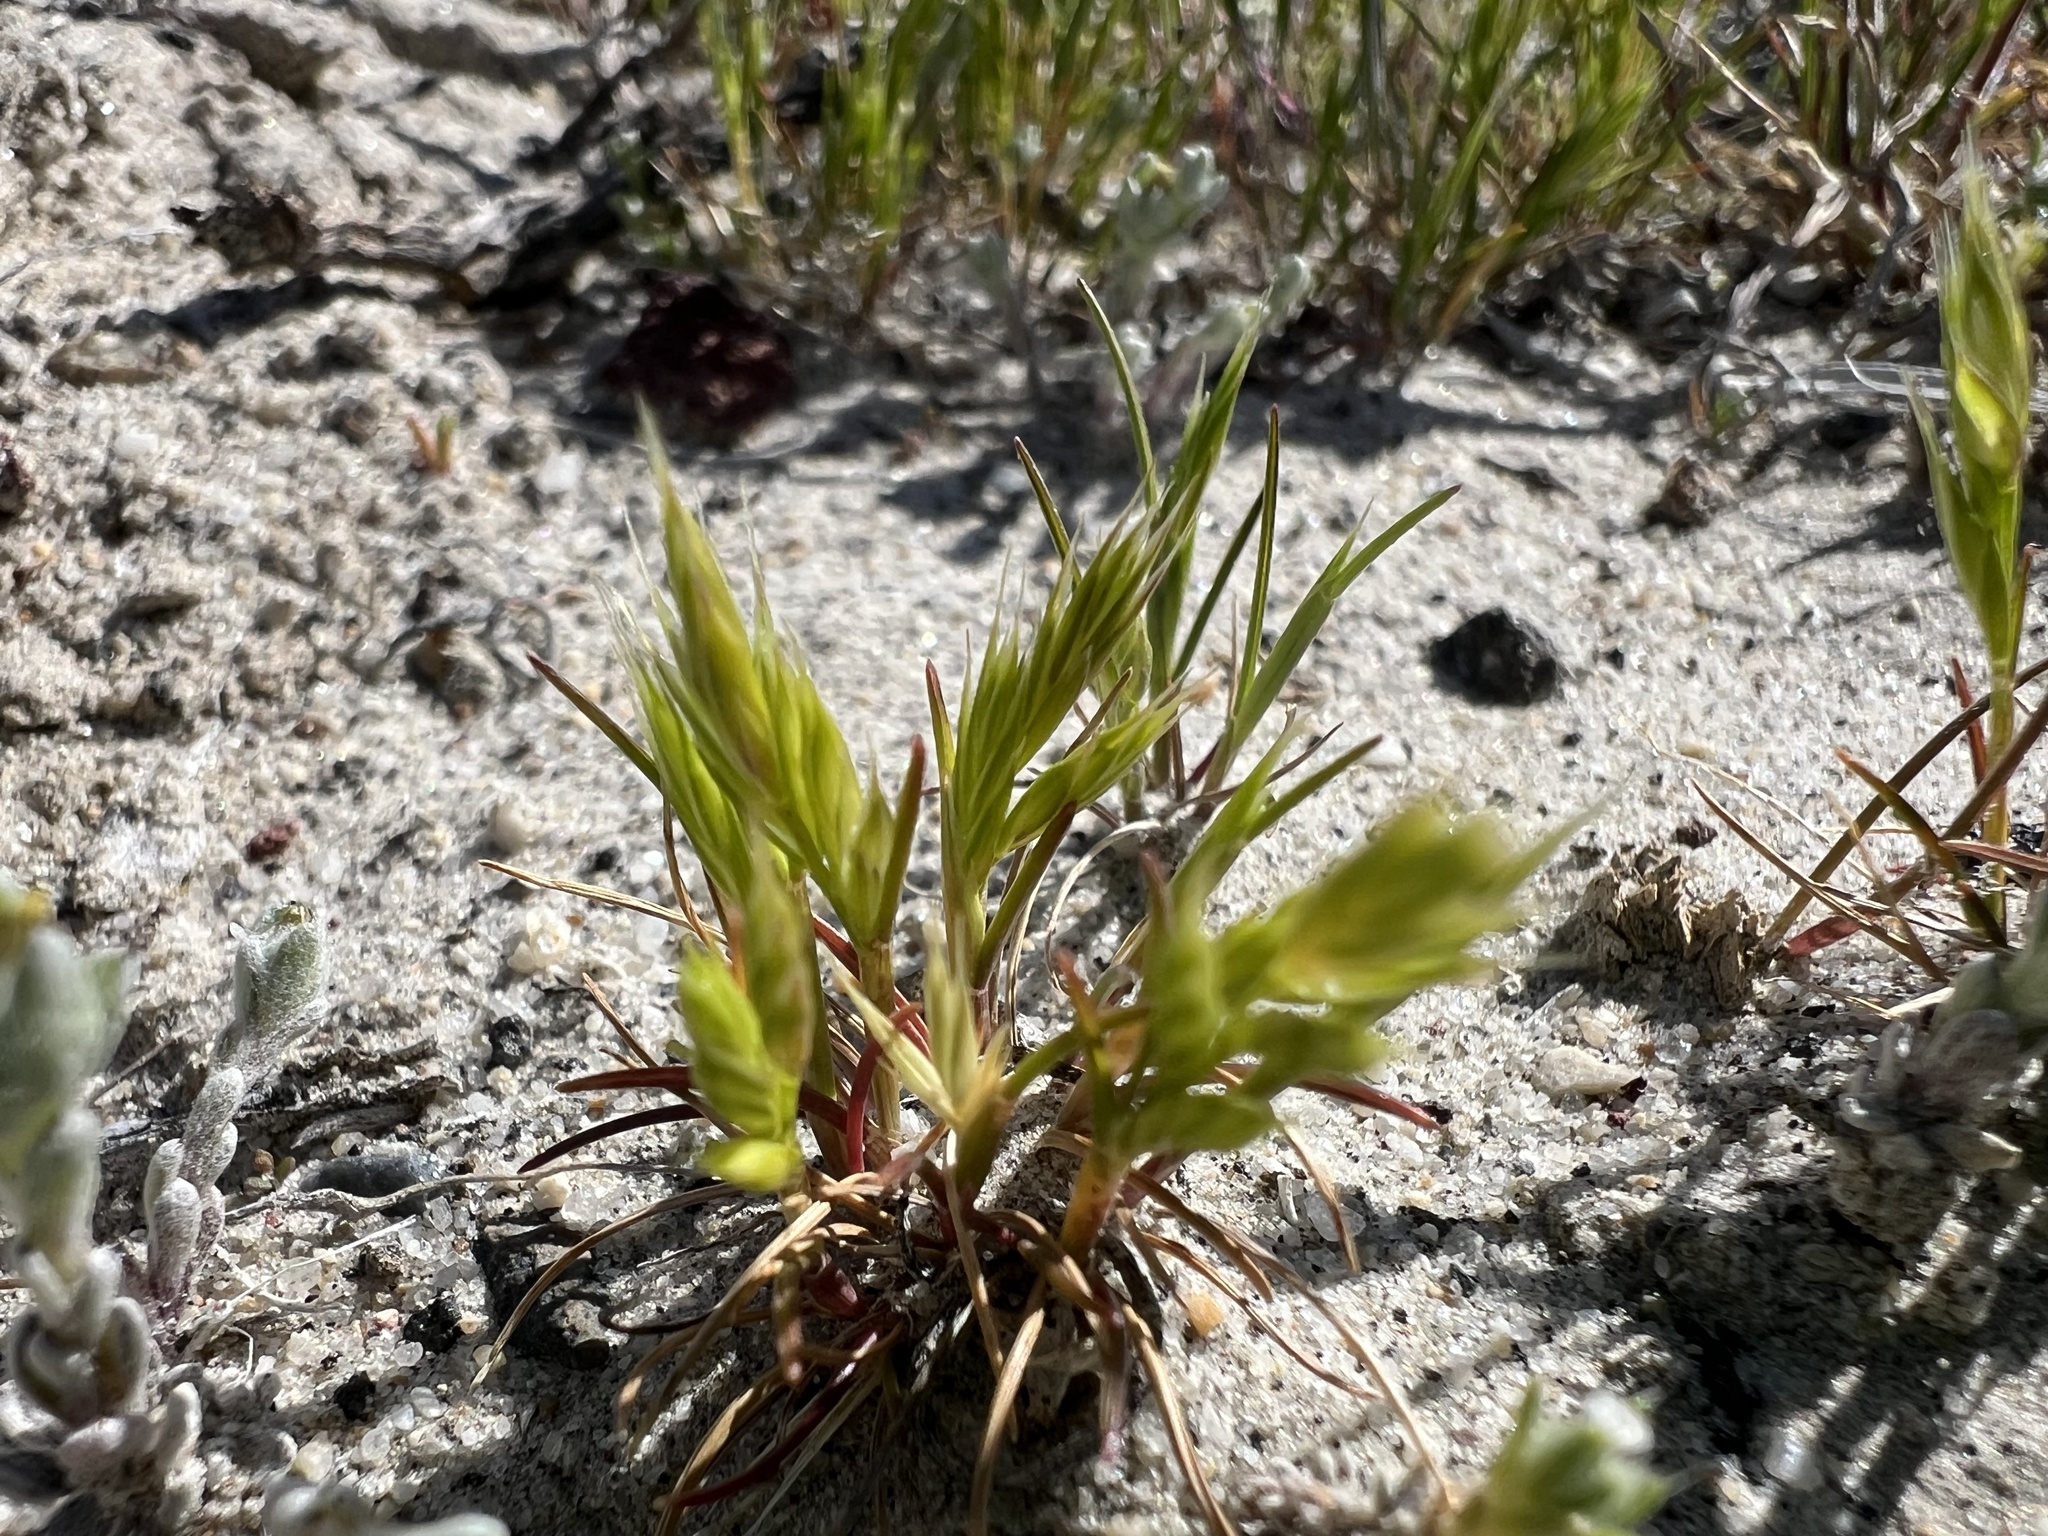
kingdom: Plantae
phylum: Tracheophyta
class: Liliopsida
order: Poales
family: Poaceae
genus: Festuca
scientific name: Festuca octoflora
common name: Sixweeks grass
